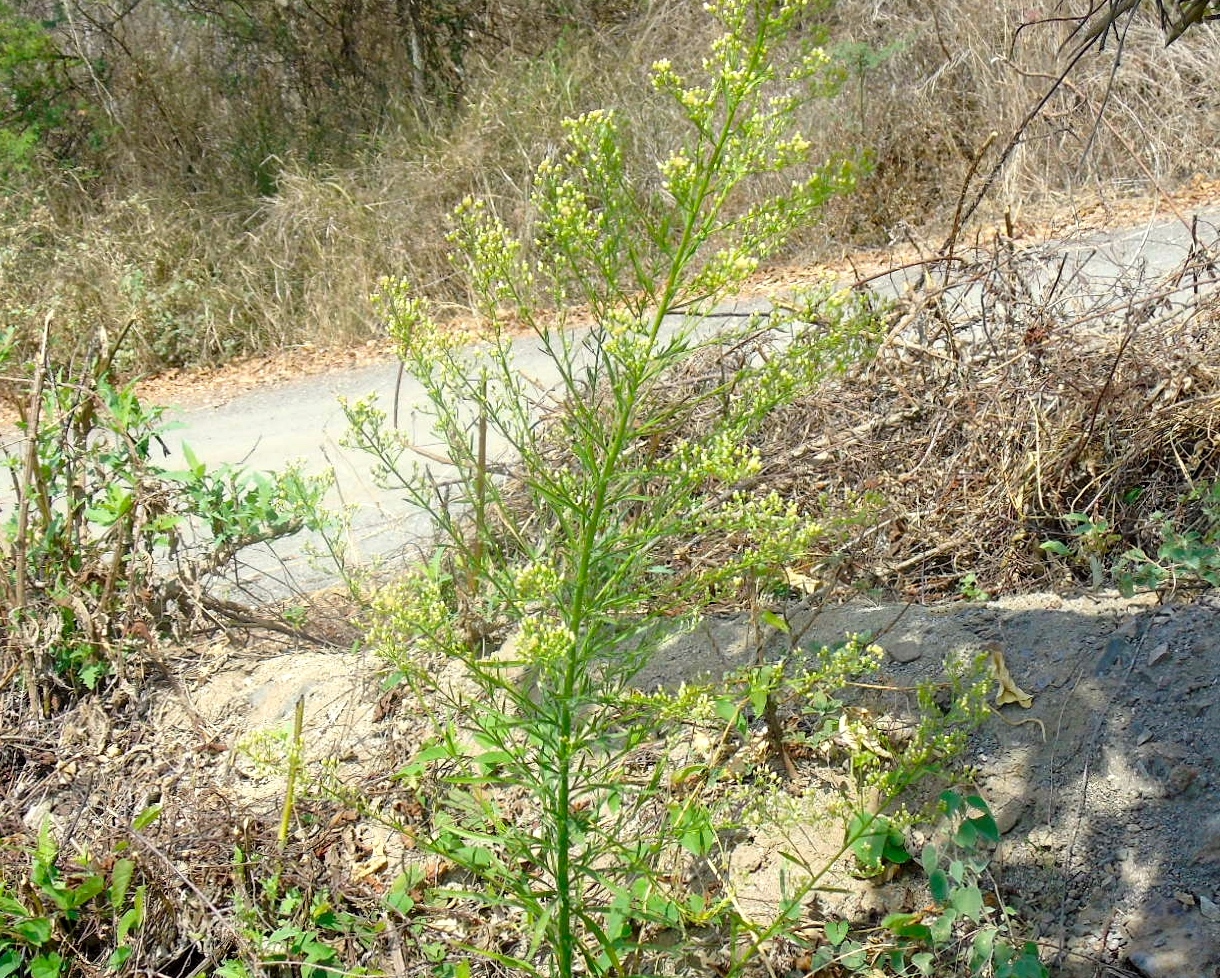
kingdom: Plantae
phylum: Tracheophyta
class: Magnoliopsida
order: Asterales
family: Asteraceae
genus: Erigeron
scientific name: Erigeron canadensis
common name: Canadian fleabane
